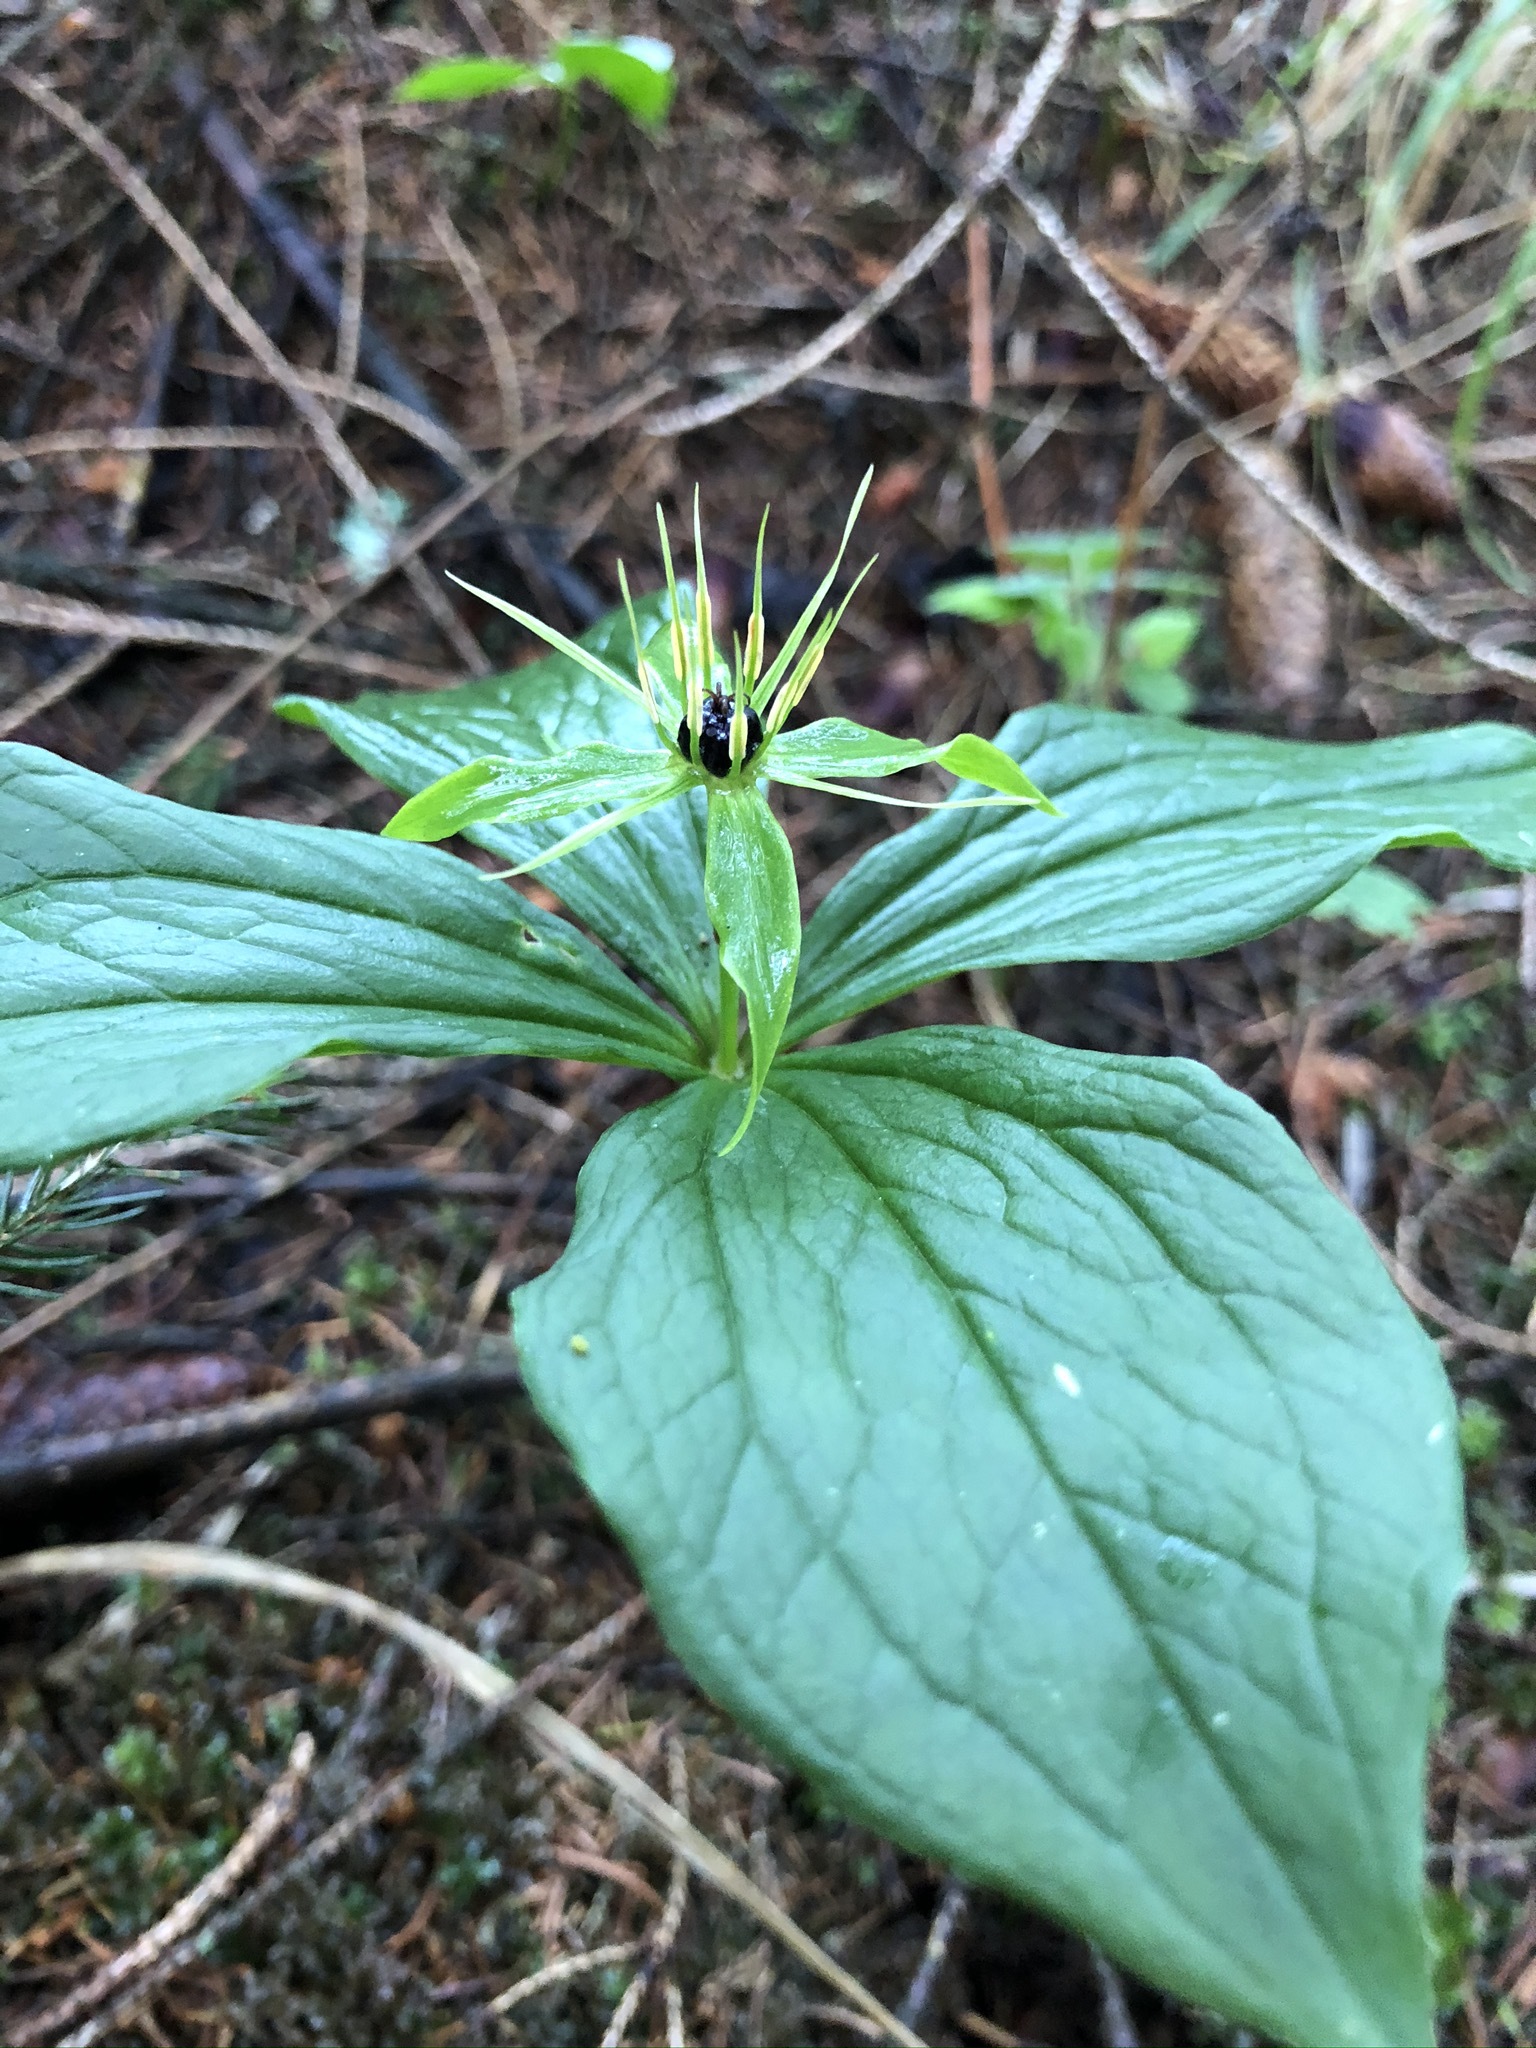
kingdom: Plantae
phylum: Tracheophyta
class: Liliopsida
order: Liliales
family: Melanthiaceae
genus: Paris
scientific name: Paris quadrifolia
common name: Herb-paris
